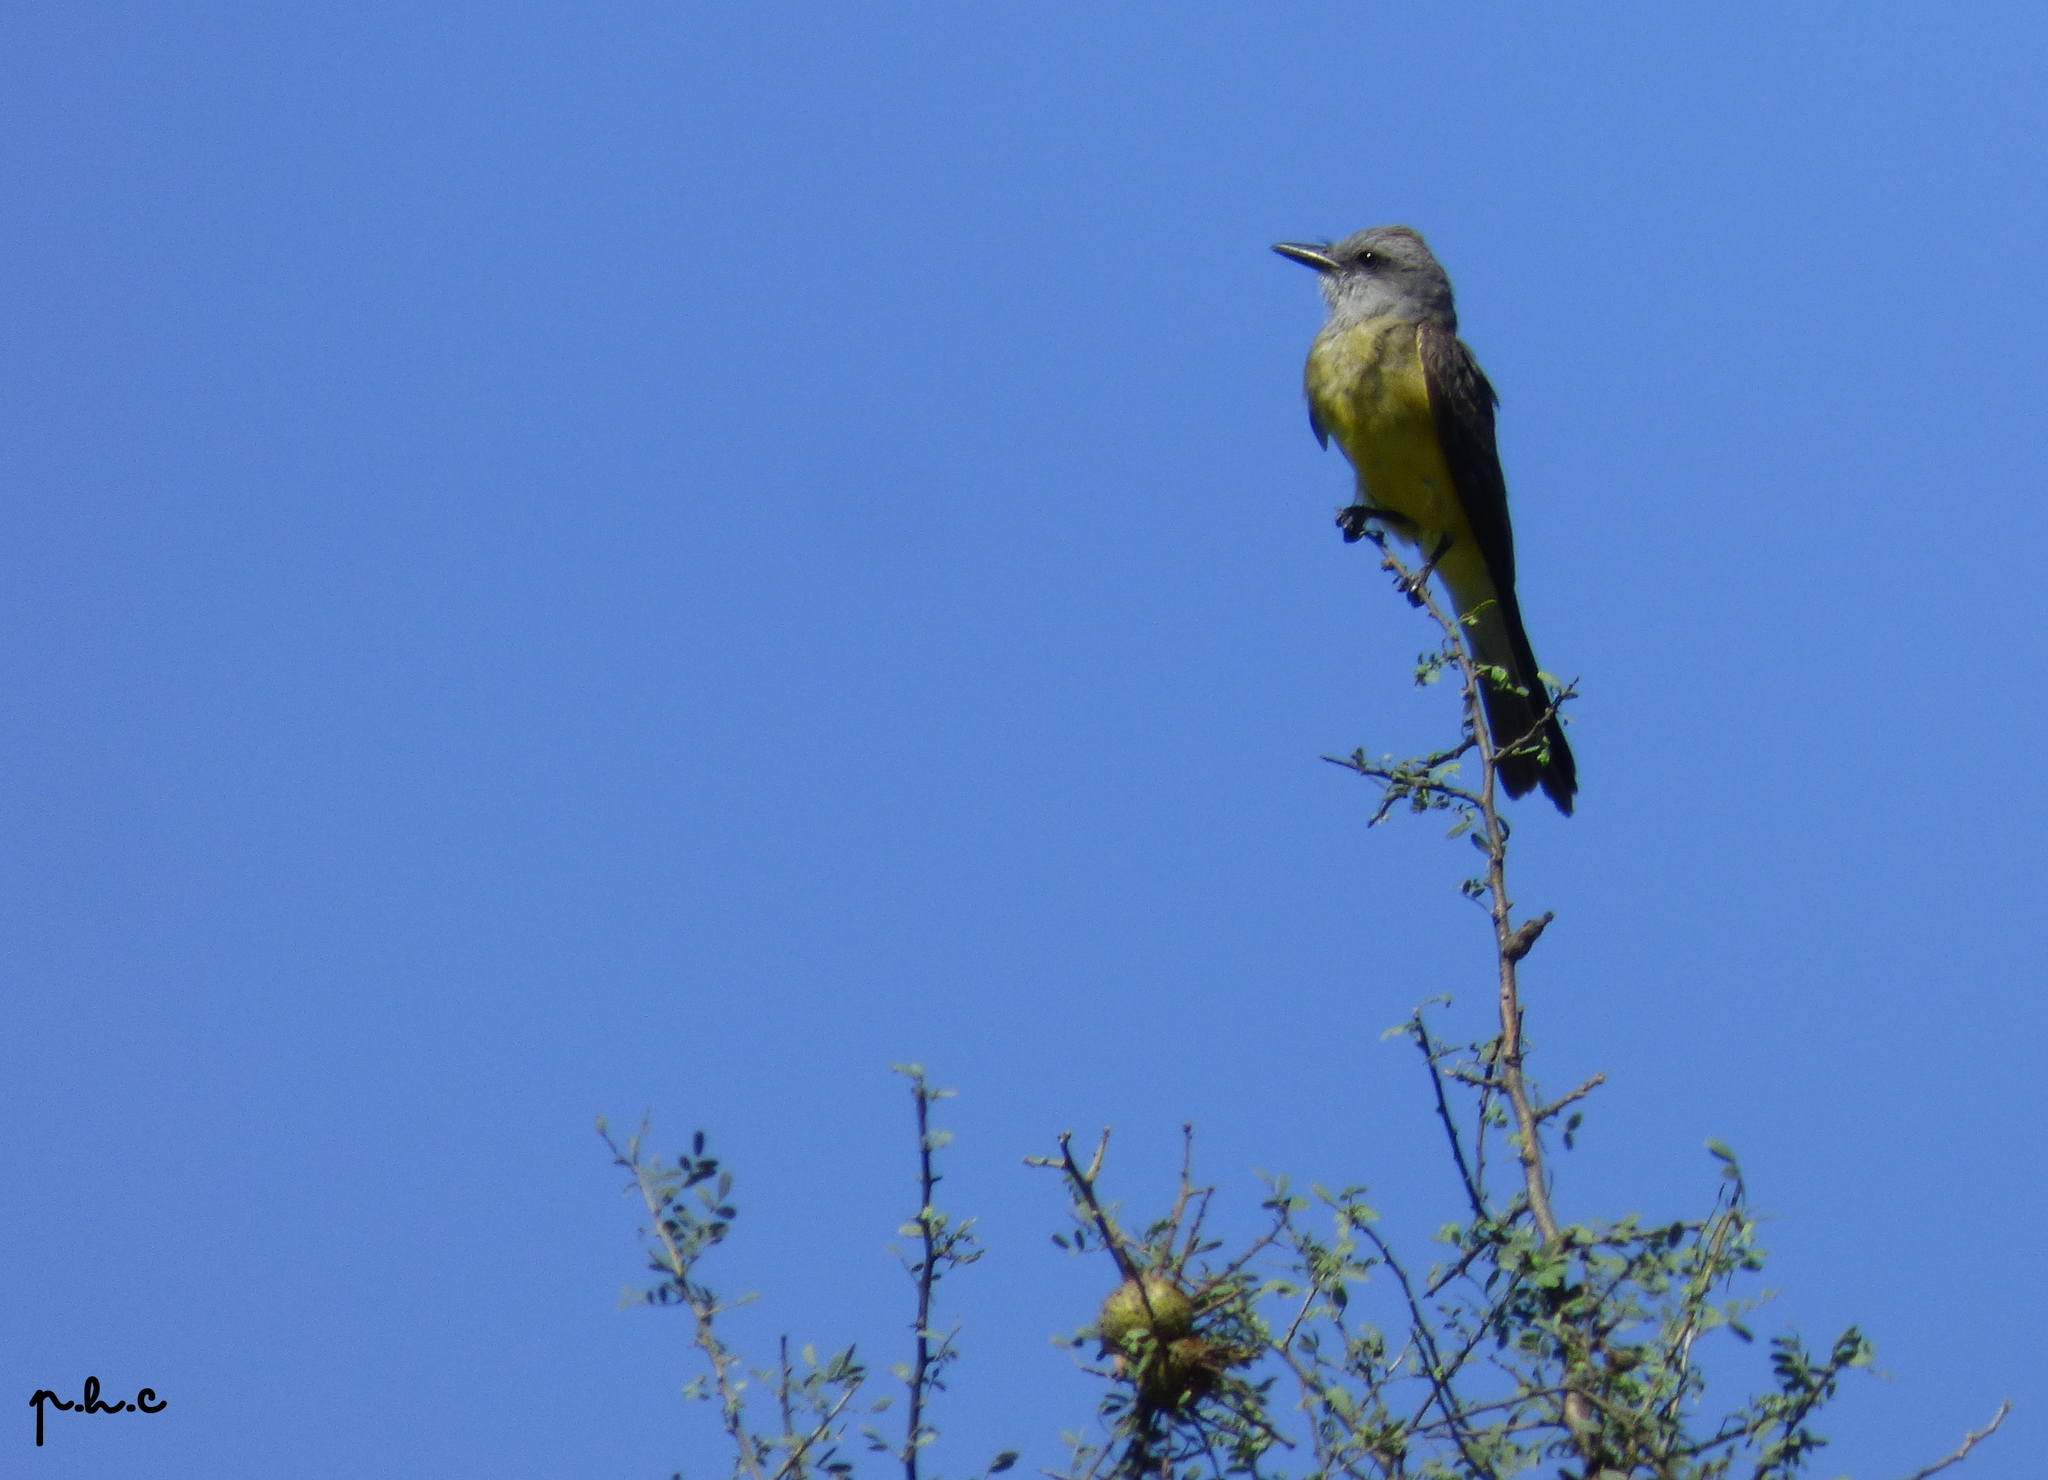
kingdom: Animalia
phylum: Chordata
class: Aves
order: Passeriformes
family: Tyrannidae
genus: Tyrannus
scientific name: Tyrannus melancholicus
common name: Tropical kingbird
